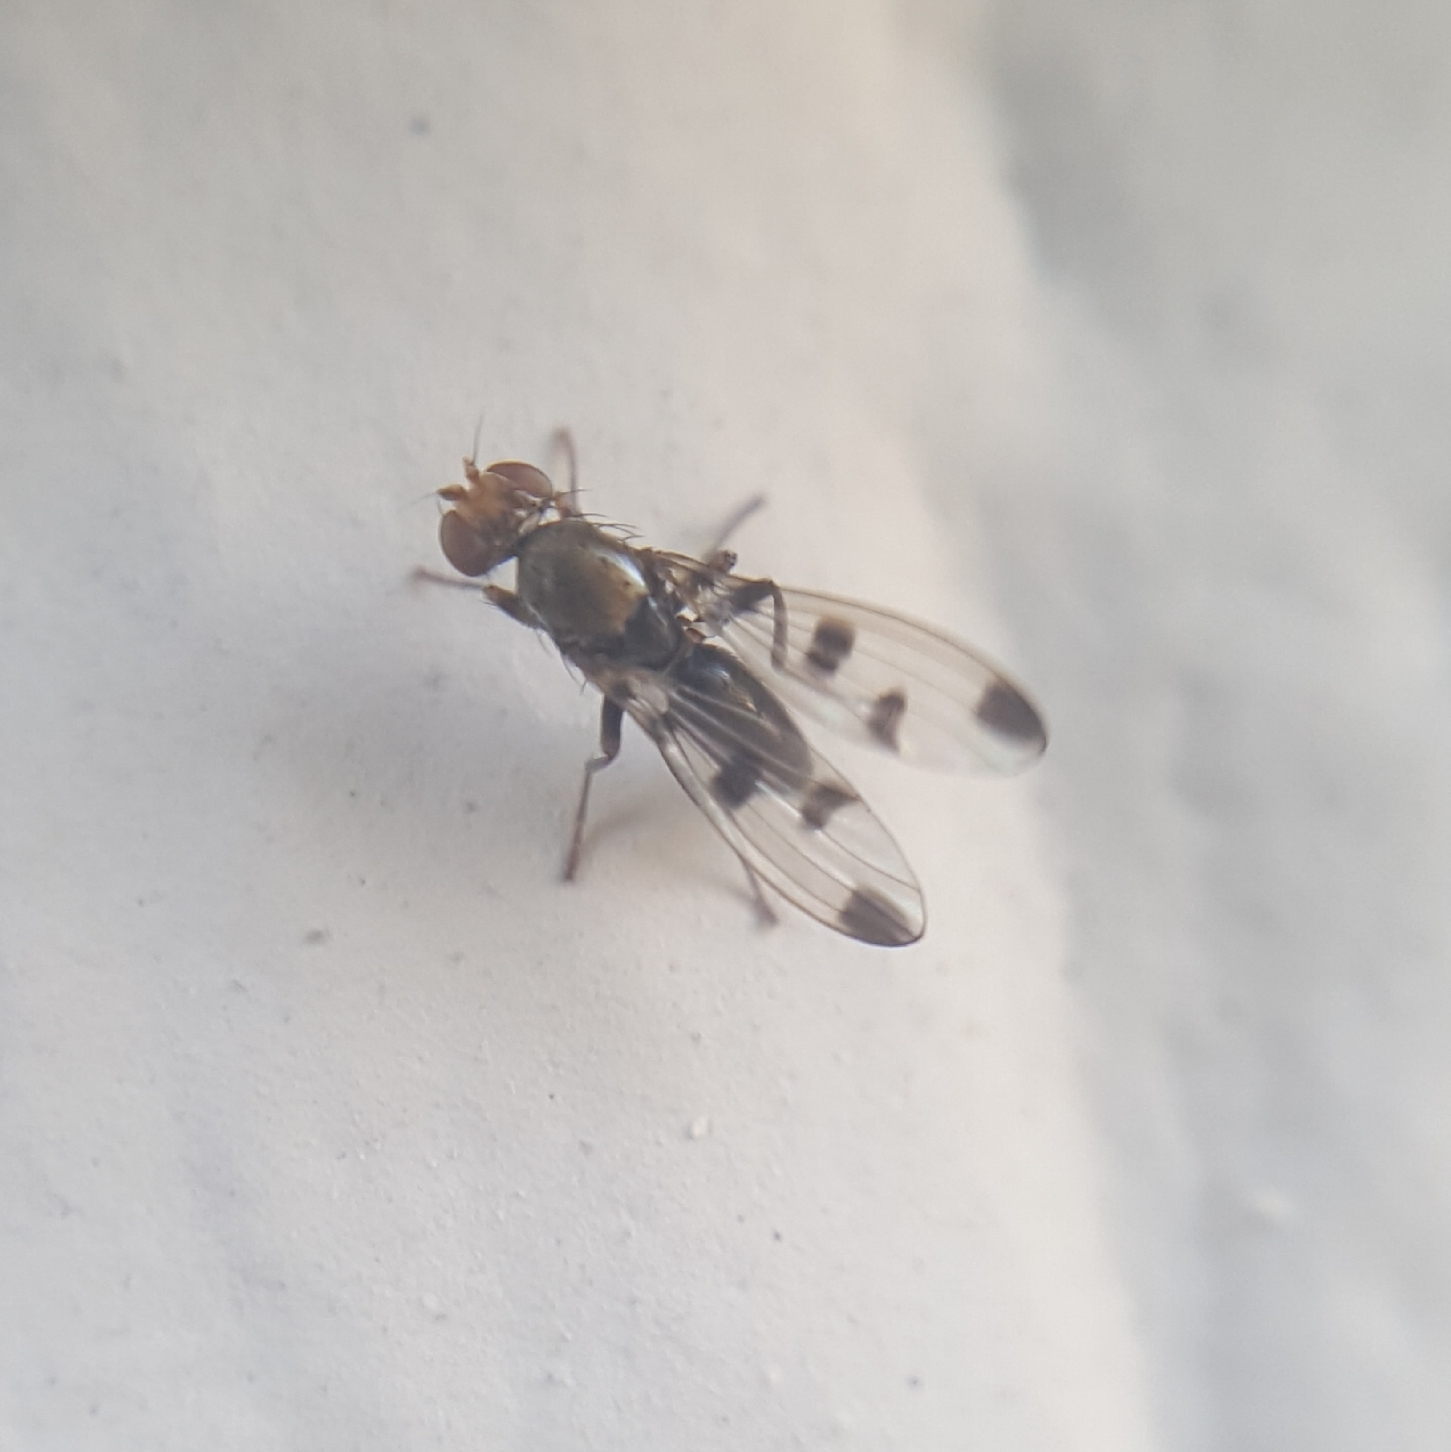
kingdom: Animalia
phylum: Arthropoda
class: Insecta
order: Diptera
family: Opomyzidae
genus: Geomyza
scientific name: Geomyza tripunctata
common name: Cereal fly
